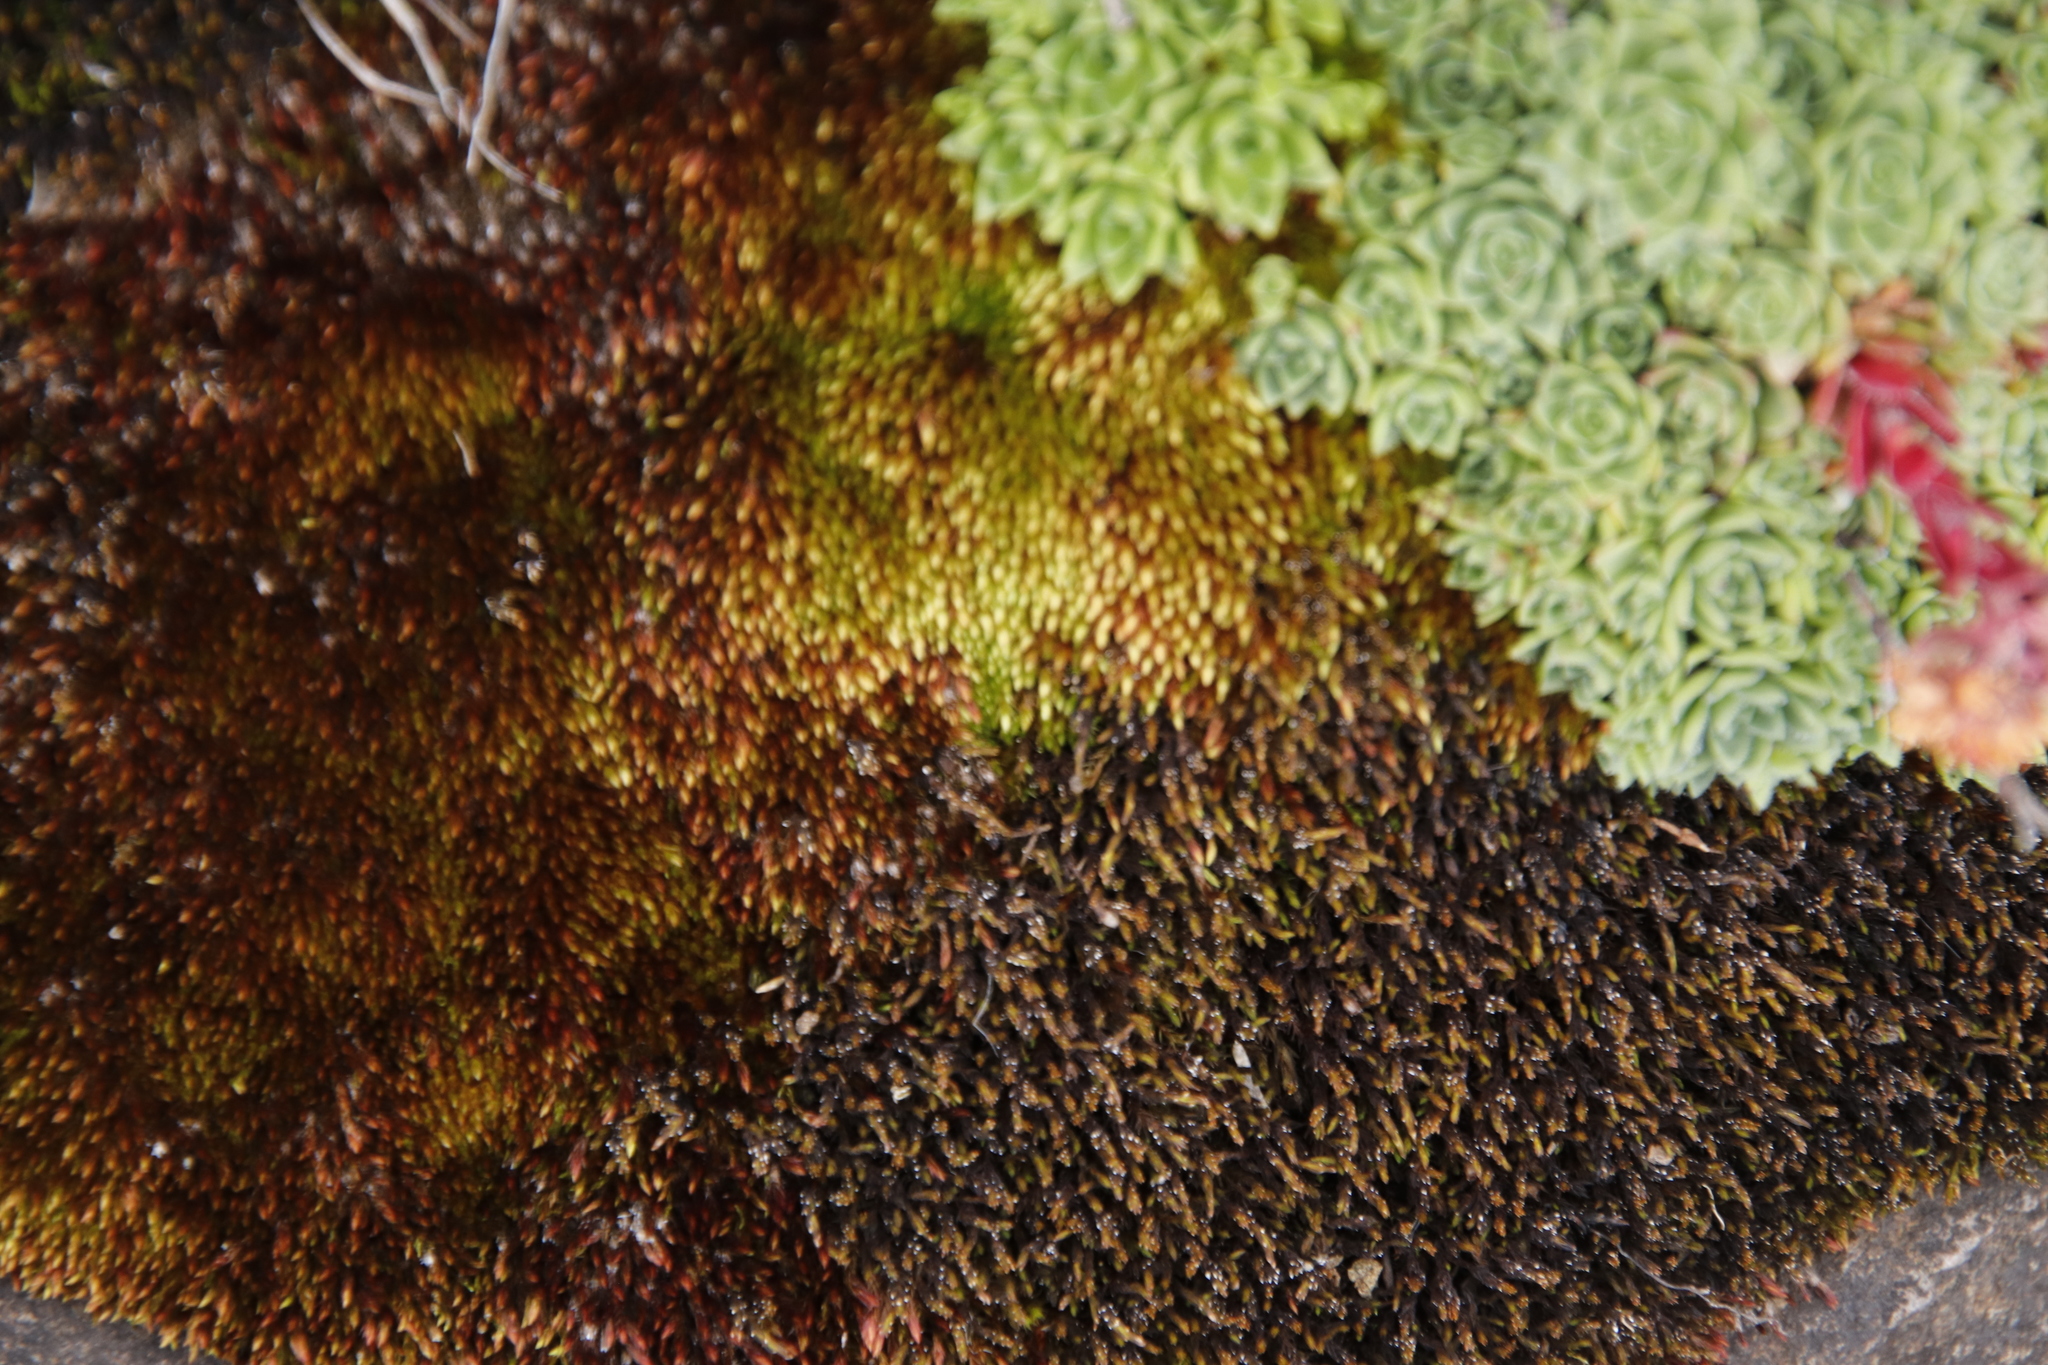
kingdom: Plantae
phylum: Bryophyta
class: Bryopsida
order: Bryales
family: Bryaceae
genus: Imbribryum
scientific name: Imbribryum alpinum
